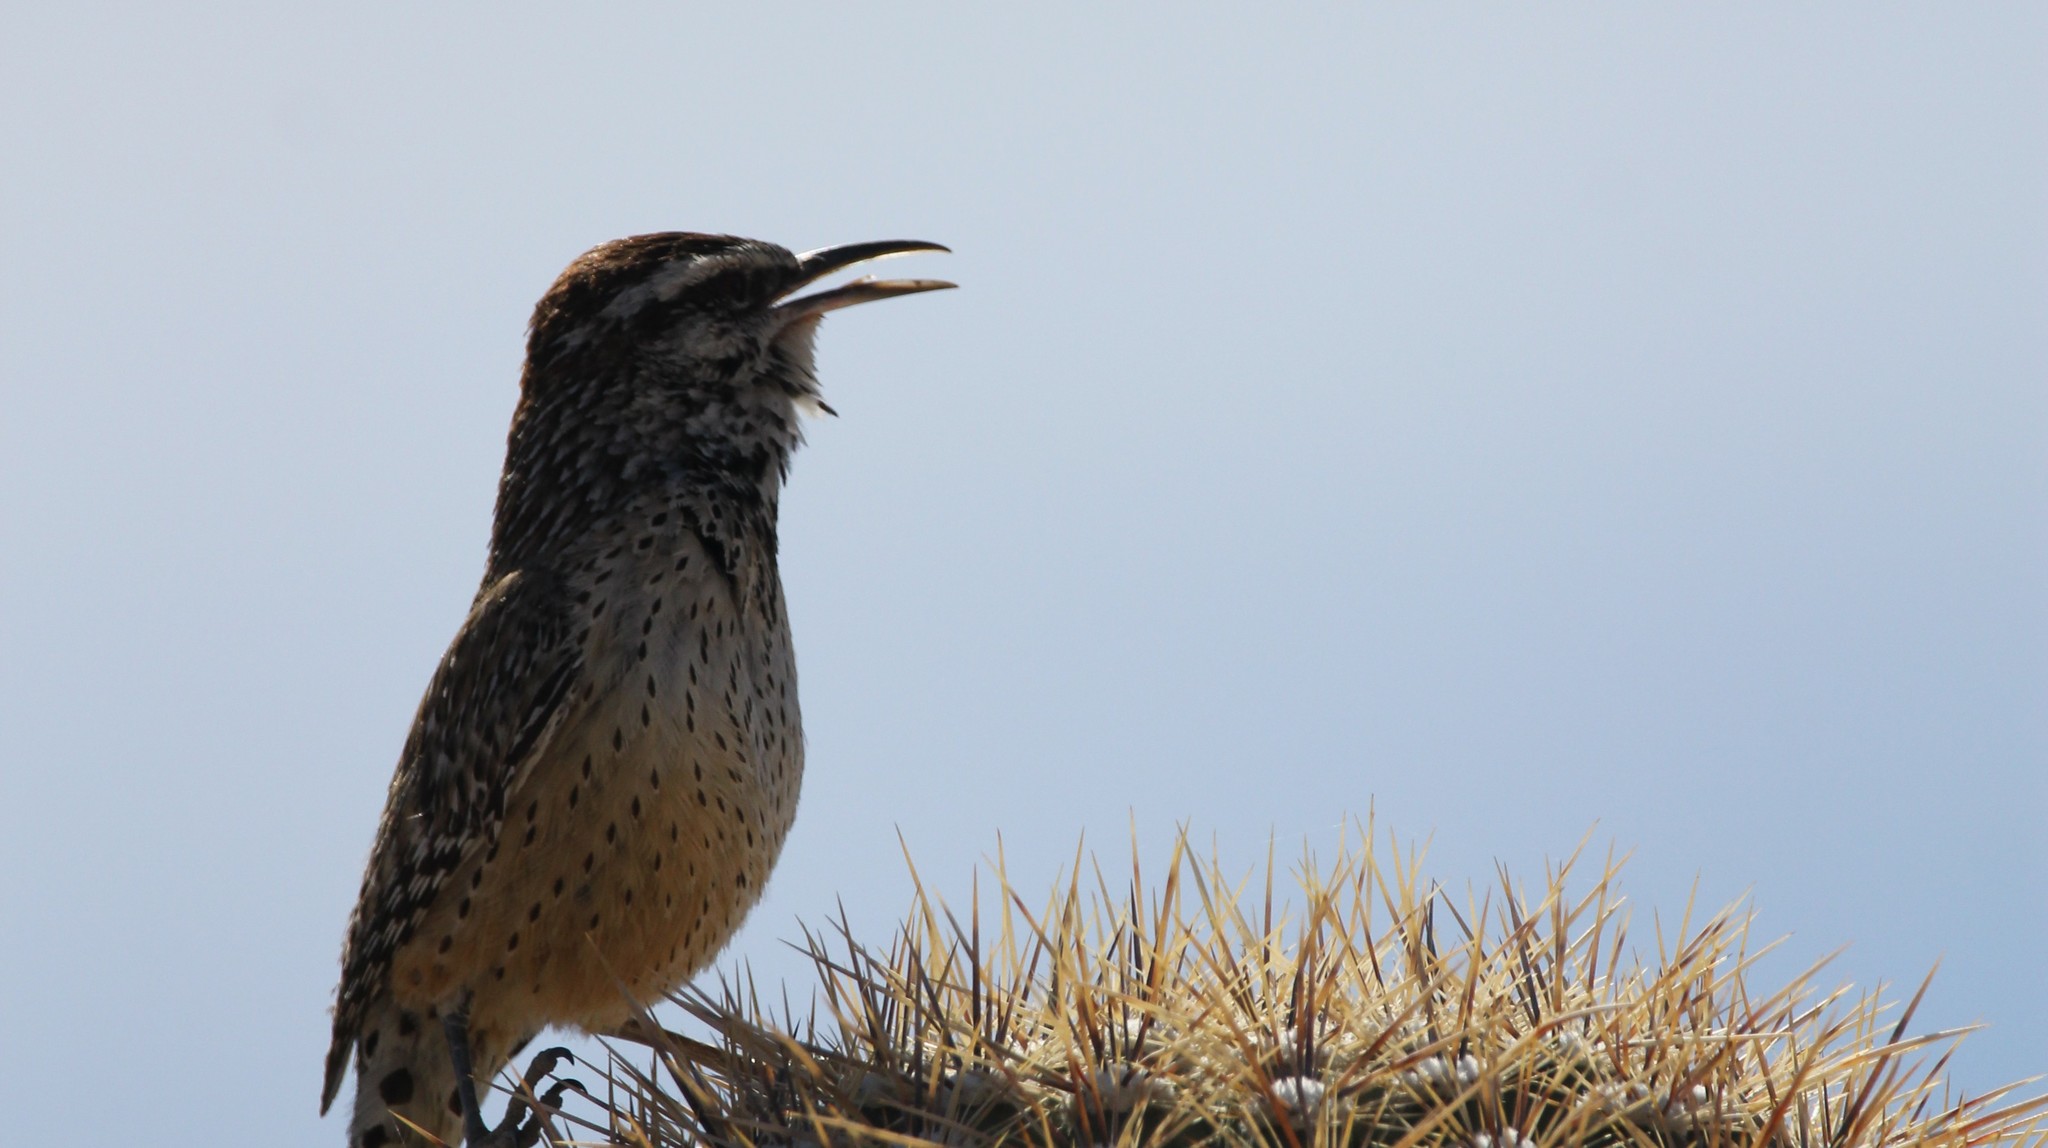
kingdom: Animalia
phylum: Chordata
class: Aves
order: Passeriformes
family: Troglodytidae
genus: Campylorhynchus
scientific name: Campylorhynchus brunneicapillus
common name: Cactus wren
